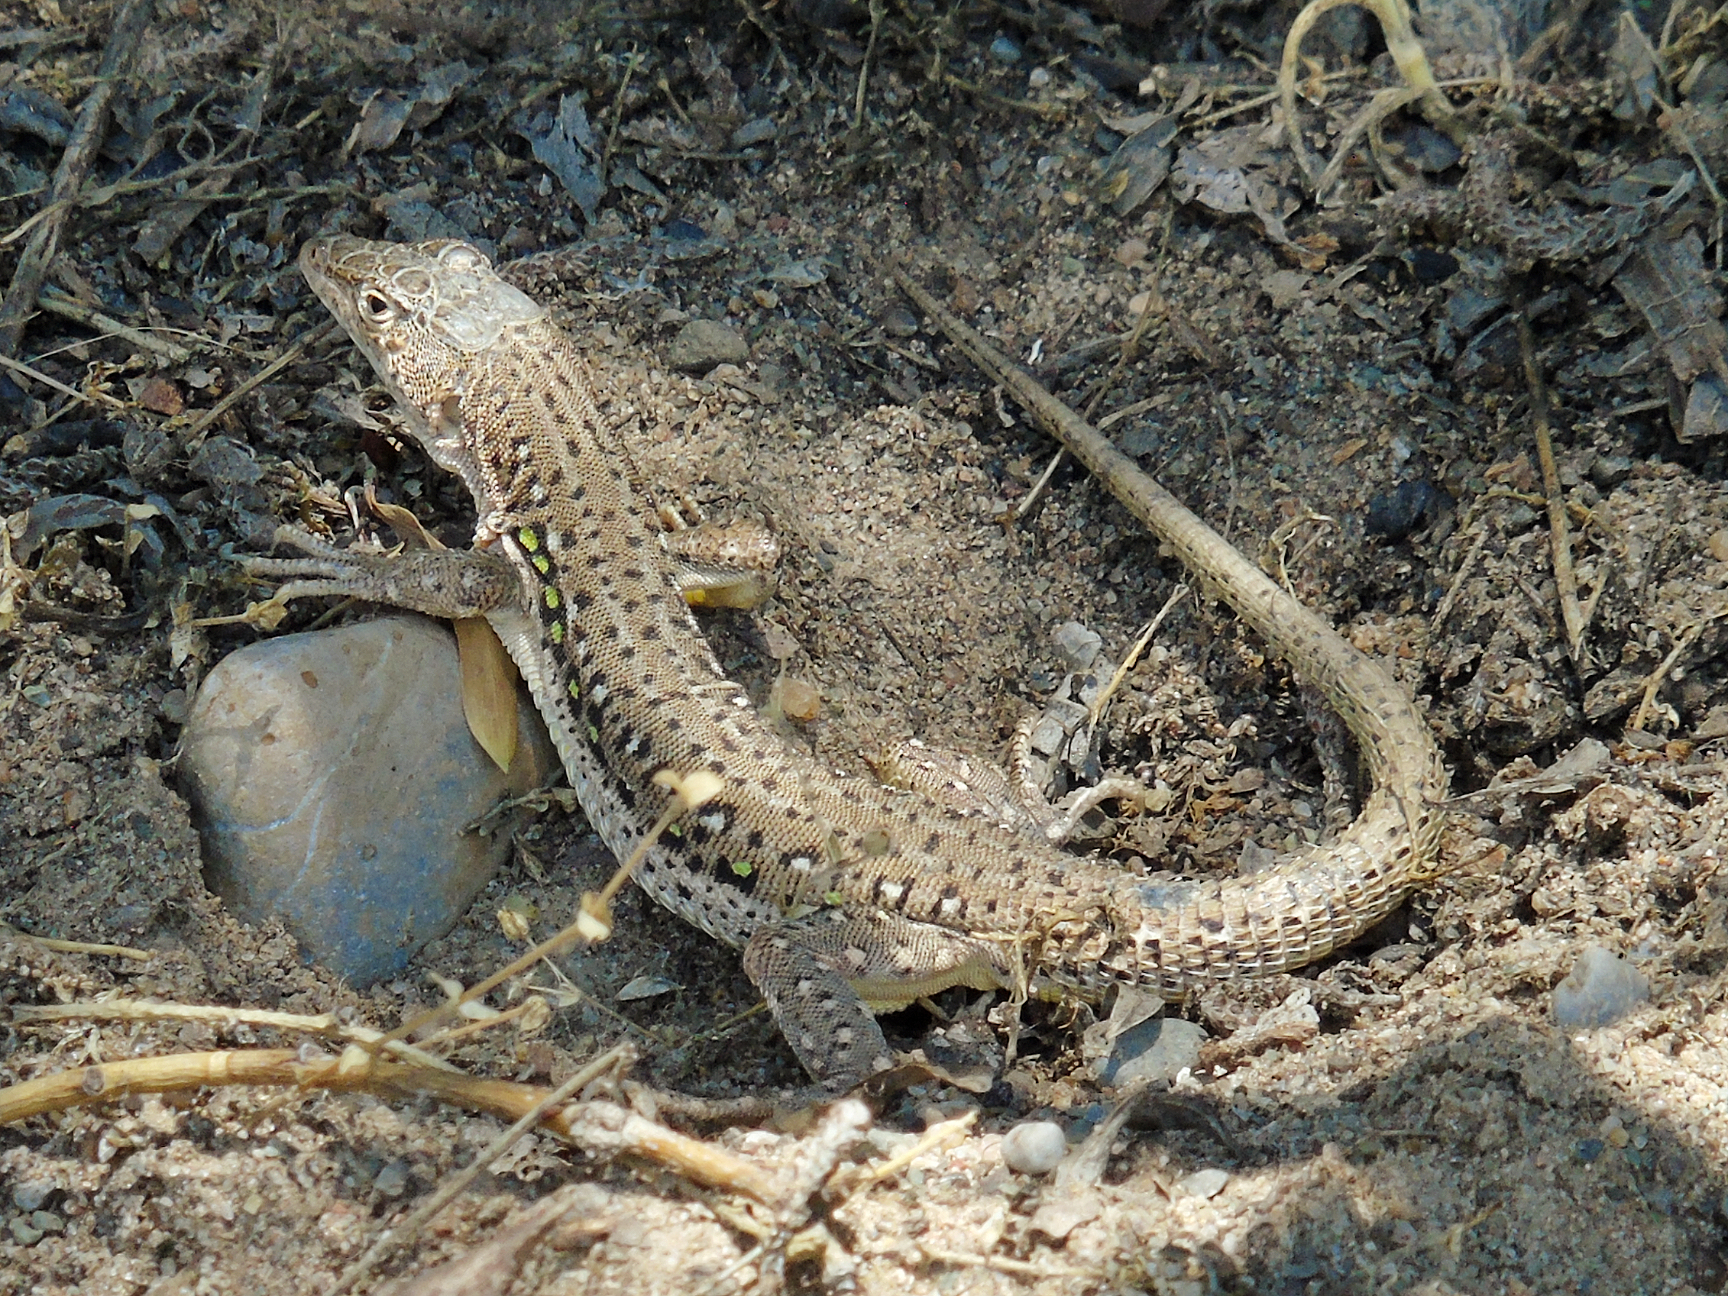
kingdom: Animalia
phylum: Chordata
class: Squamata
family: Lacertidae
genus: Eremias
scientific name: Eremias velox
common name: Central asian racerunner
